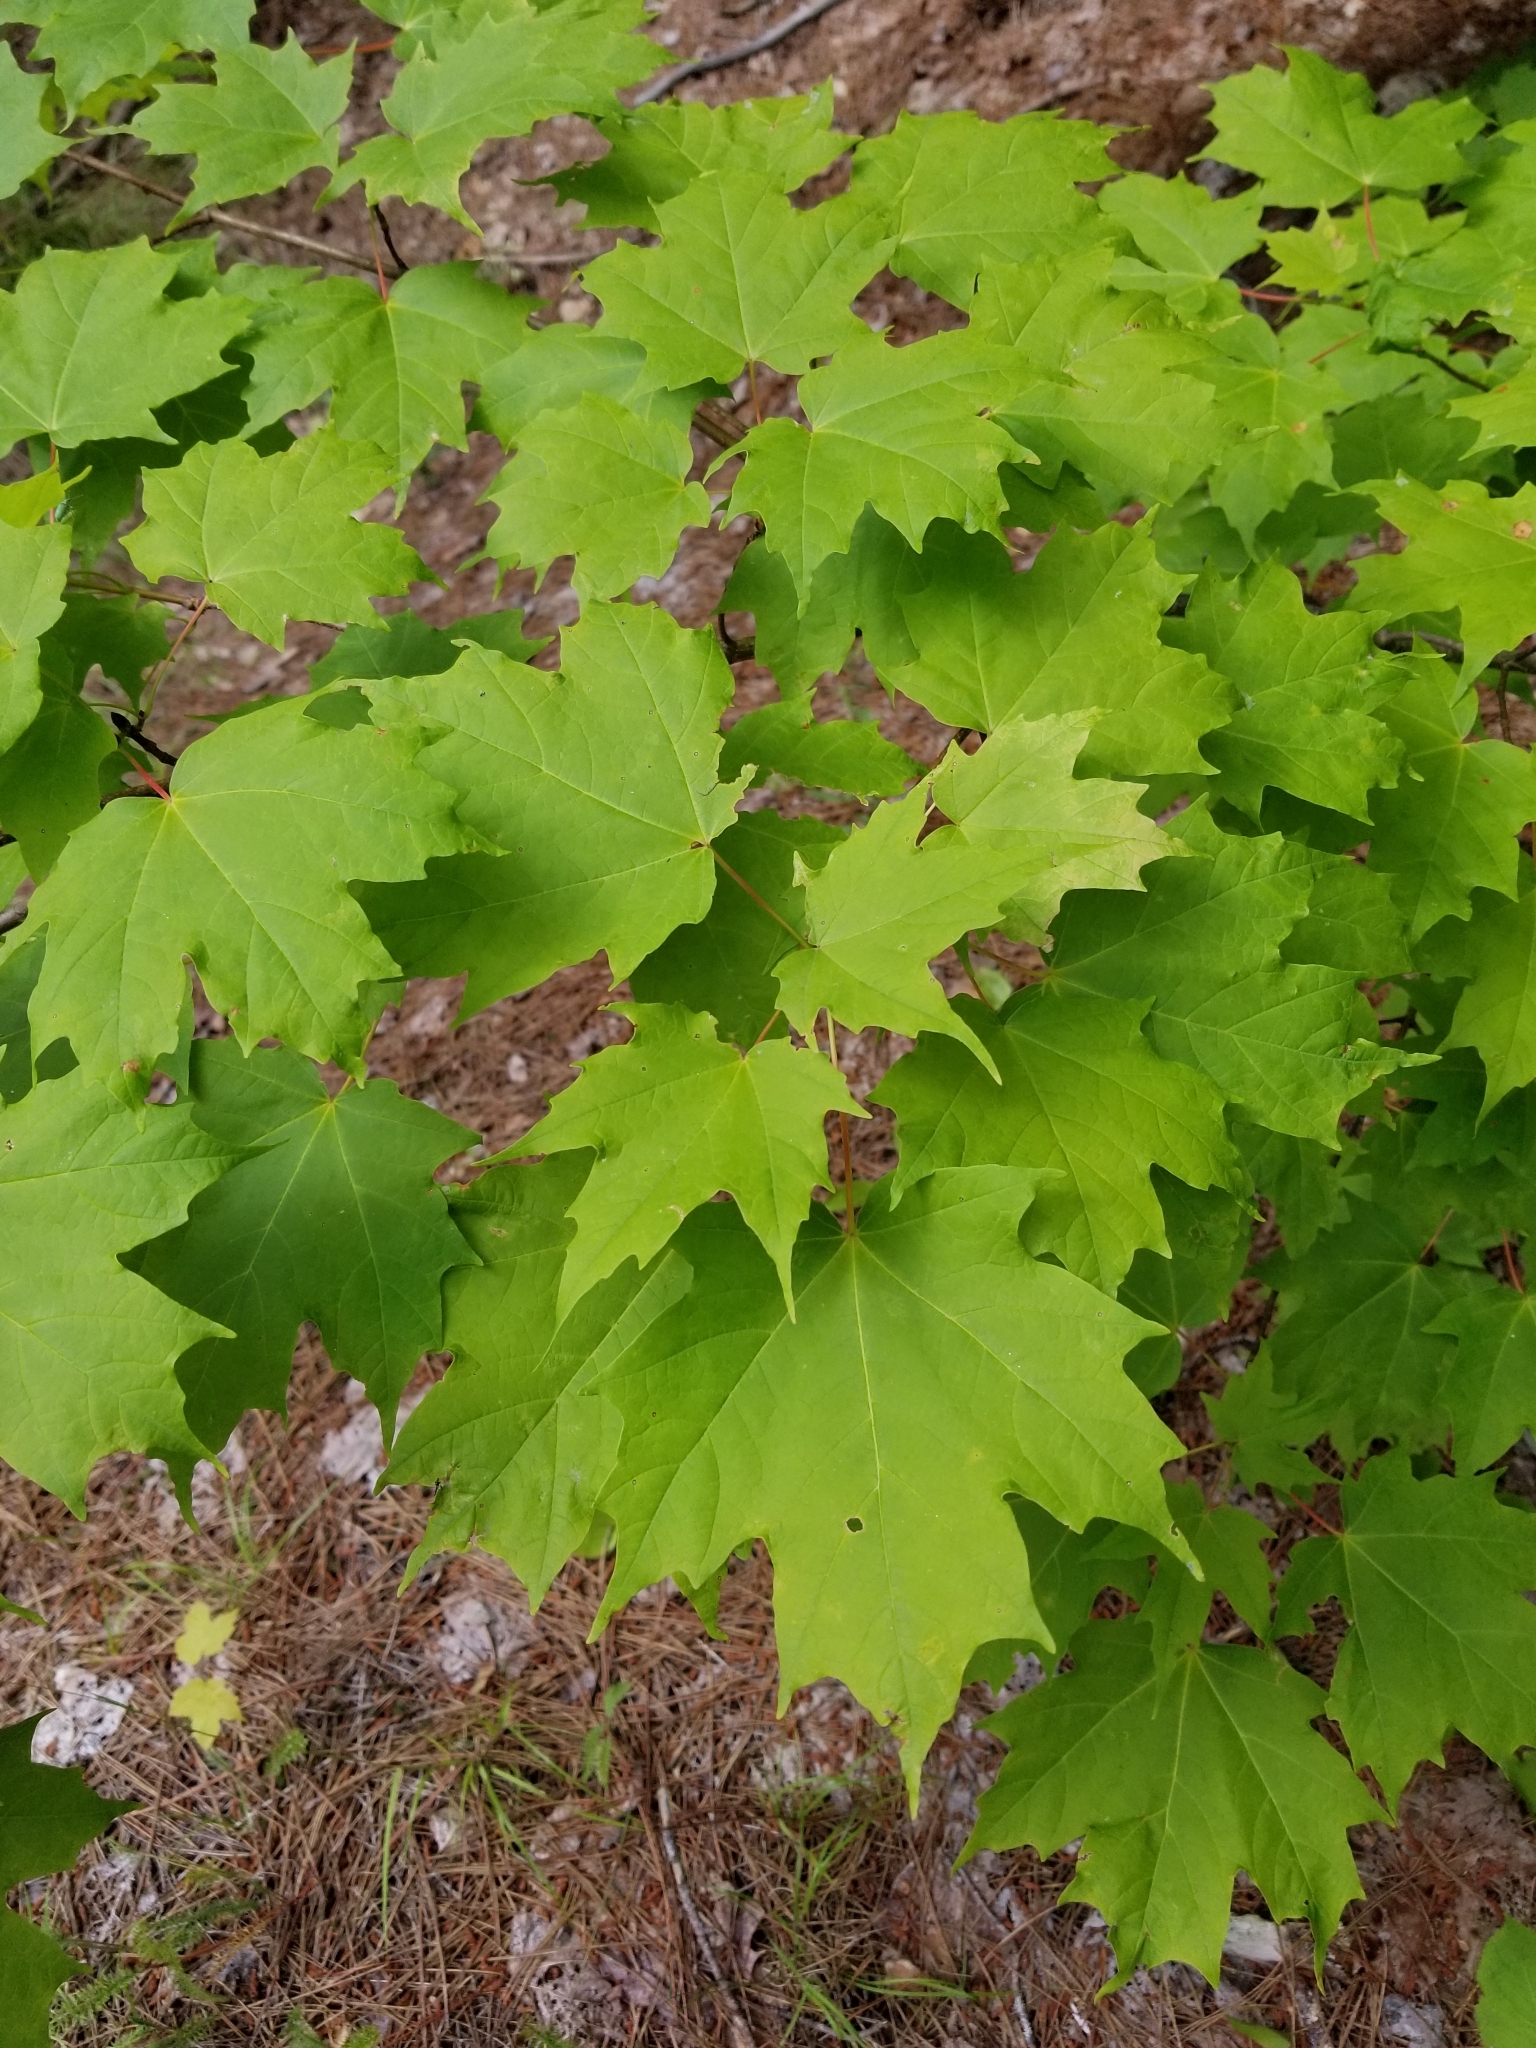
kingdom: Plantae
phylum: Tracheophyta
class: Magnoliopsida
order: Sapindales
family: Sapindaceae
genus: Acer
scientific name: Acer saccharum
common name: Sugar maple
